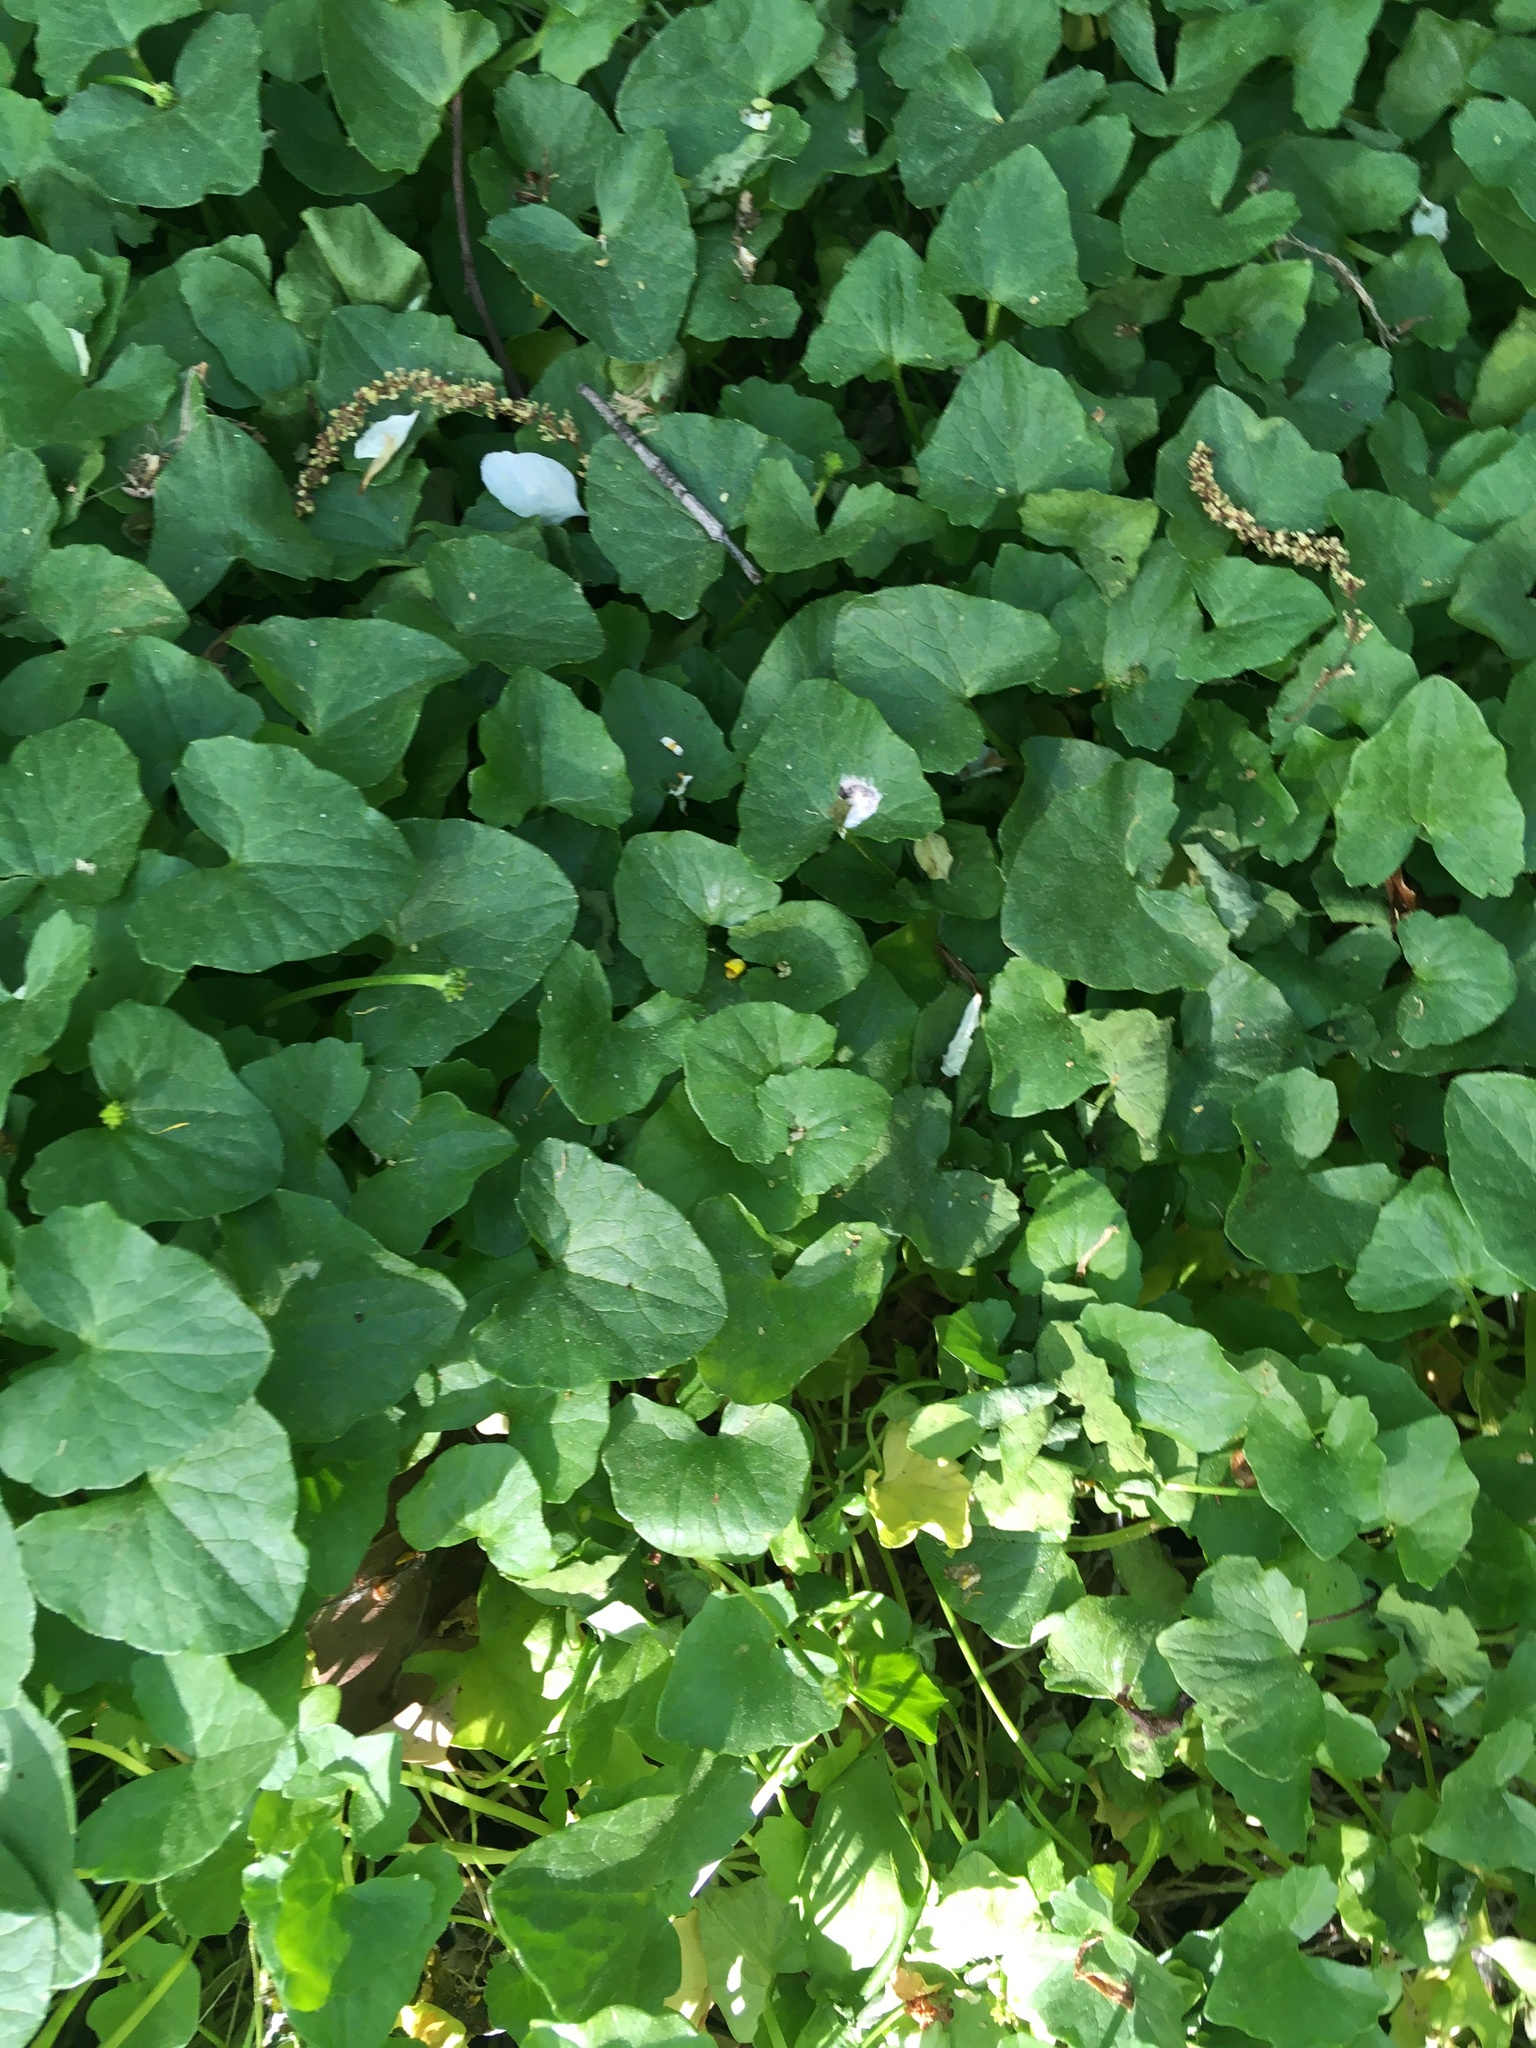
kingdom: Plantae
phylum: Tracheophyta
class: Magnoliopsida
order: Ranunculales
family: Ranunculaceae
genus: Ficaria
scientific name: Ficaria verna
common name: Lesser celandine
